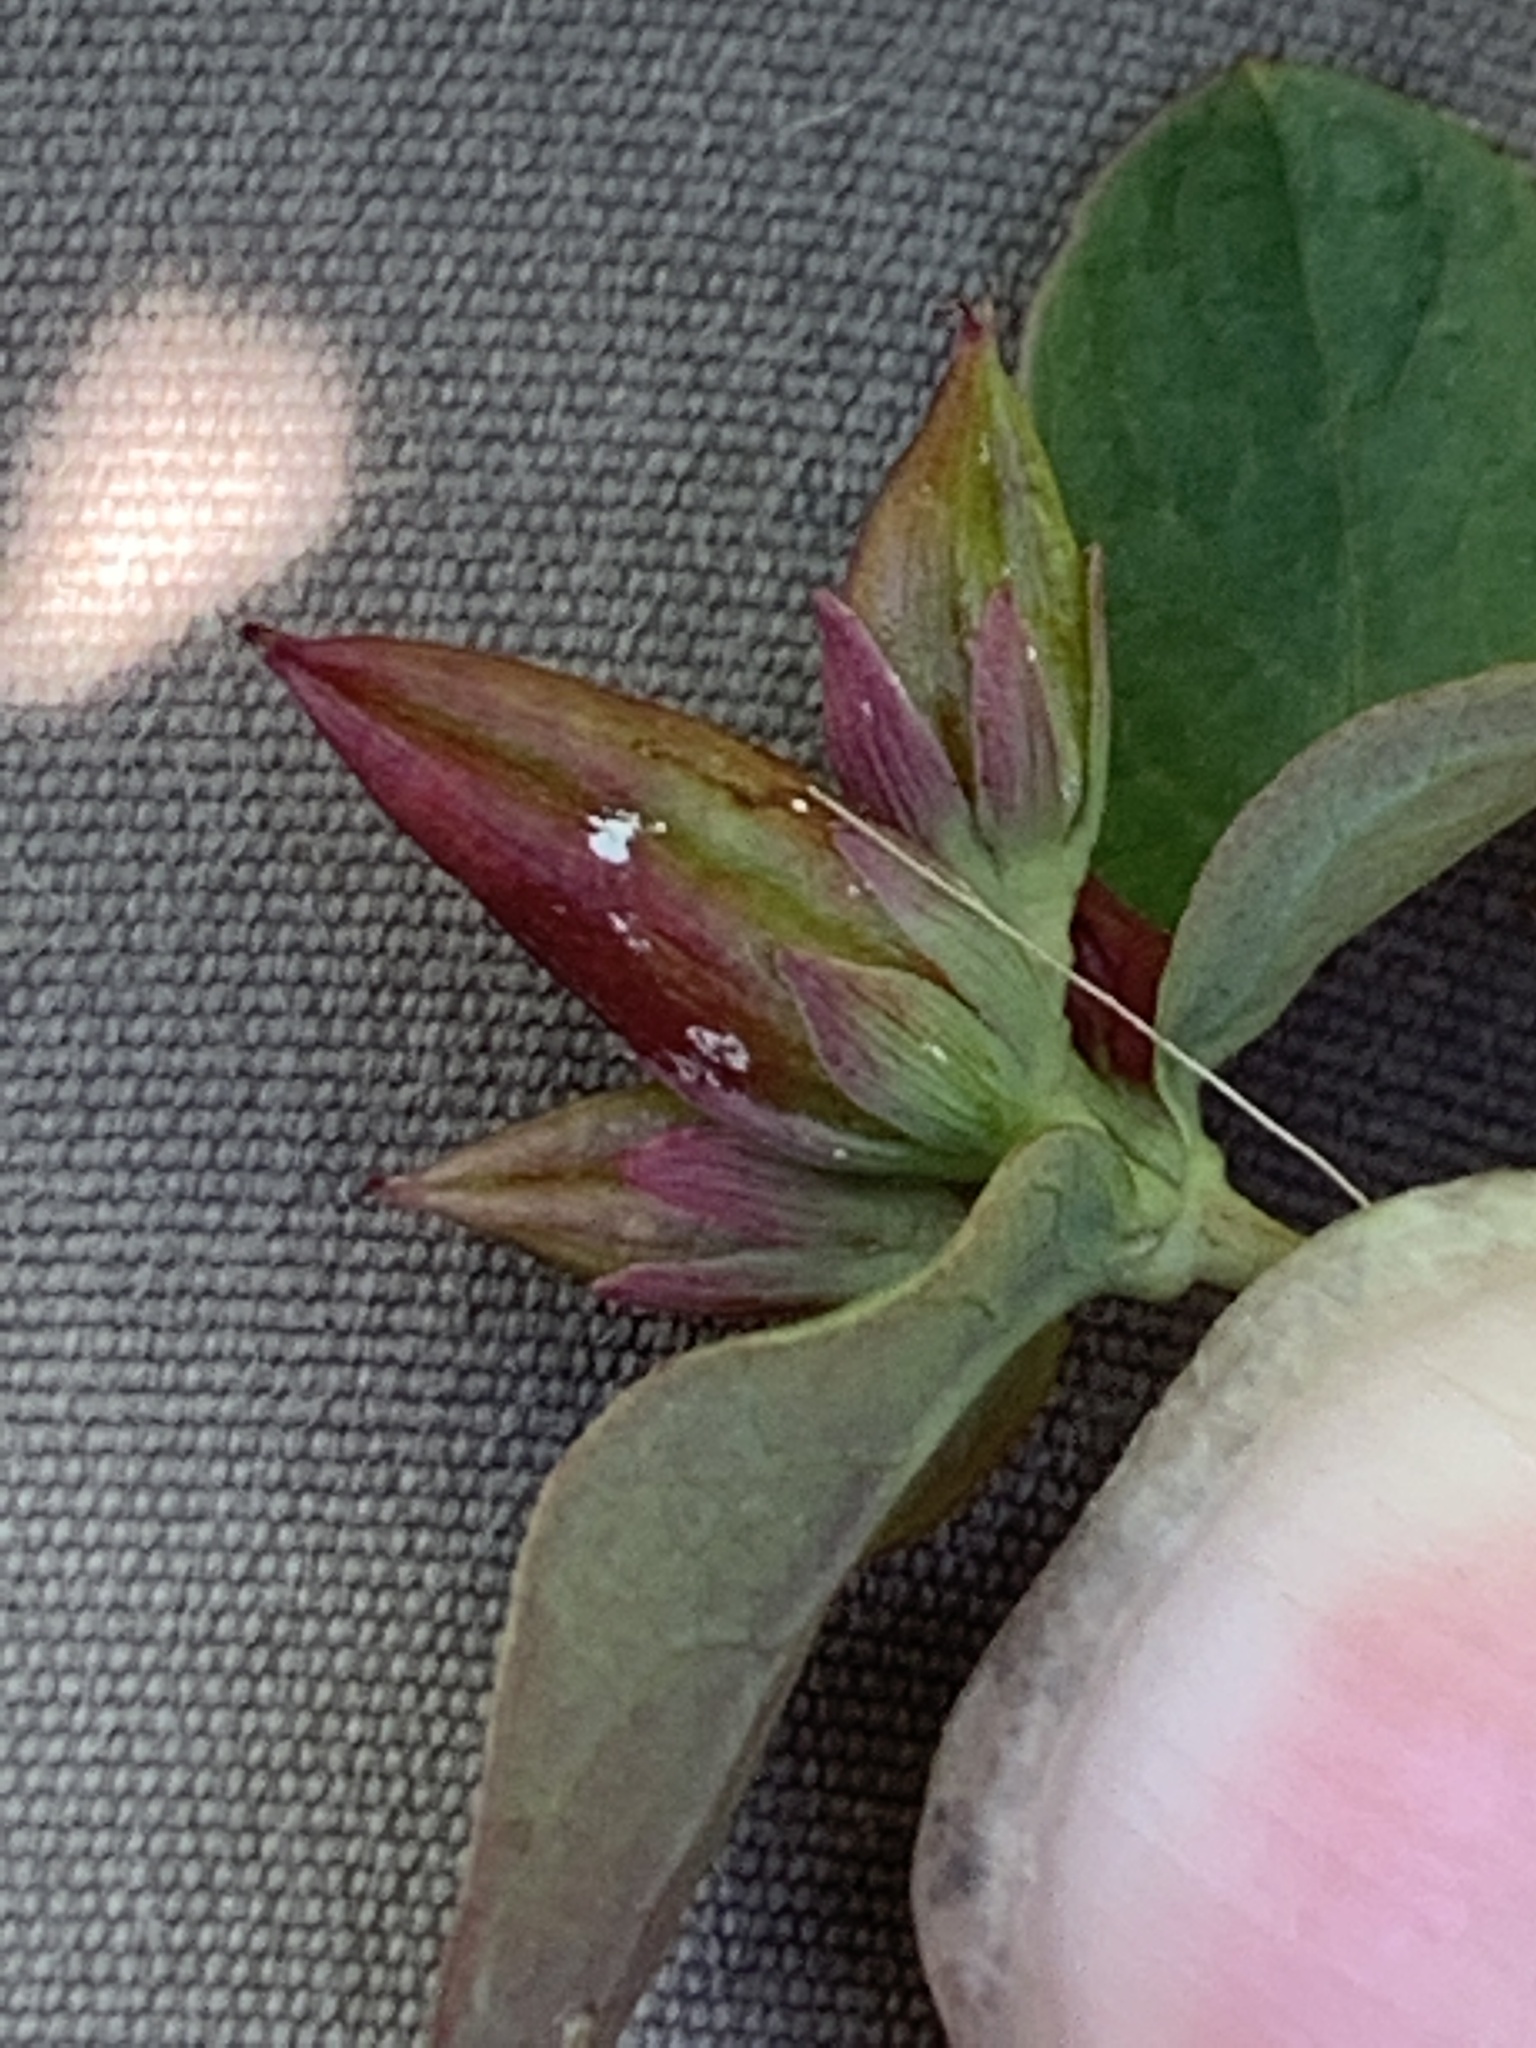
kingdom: Plantae
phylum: Tracheophyta
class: Magnoliopsida
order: Malpighiales
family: Hypericaceae
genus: Triadenum
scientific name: Triadenum fraseri
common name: Fraser's marsh st. johnswort
